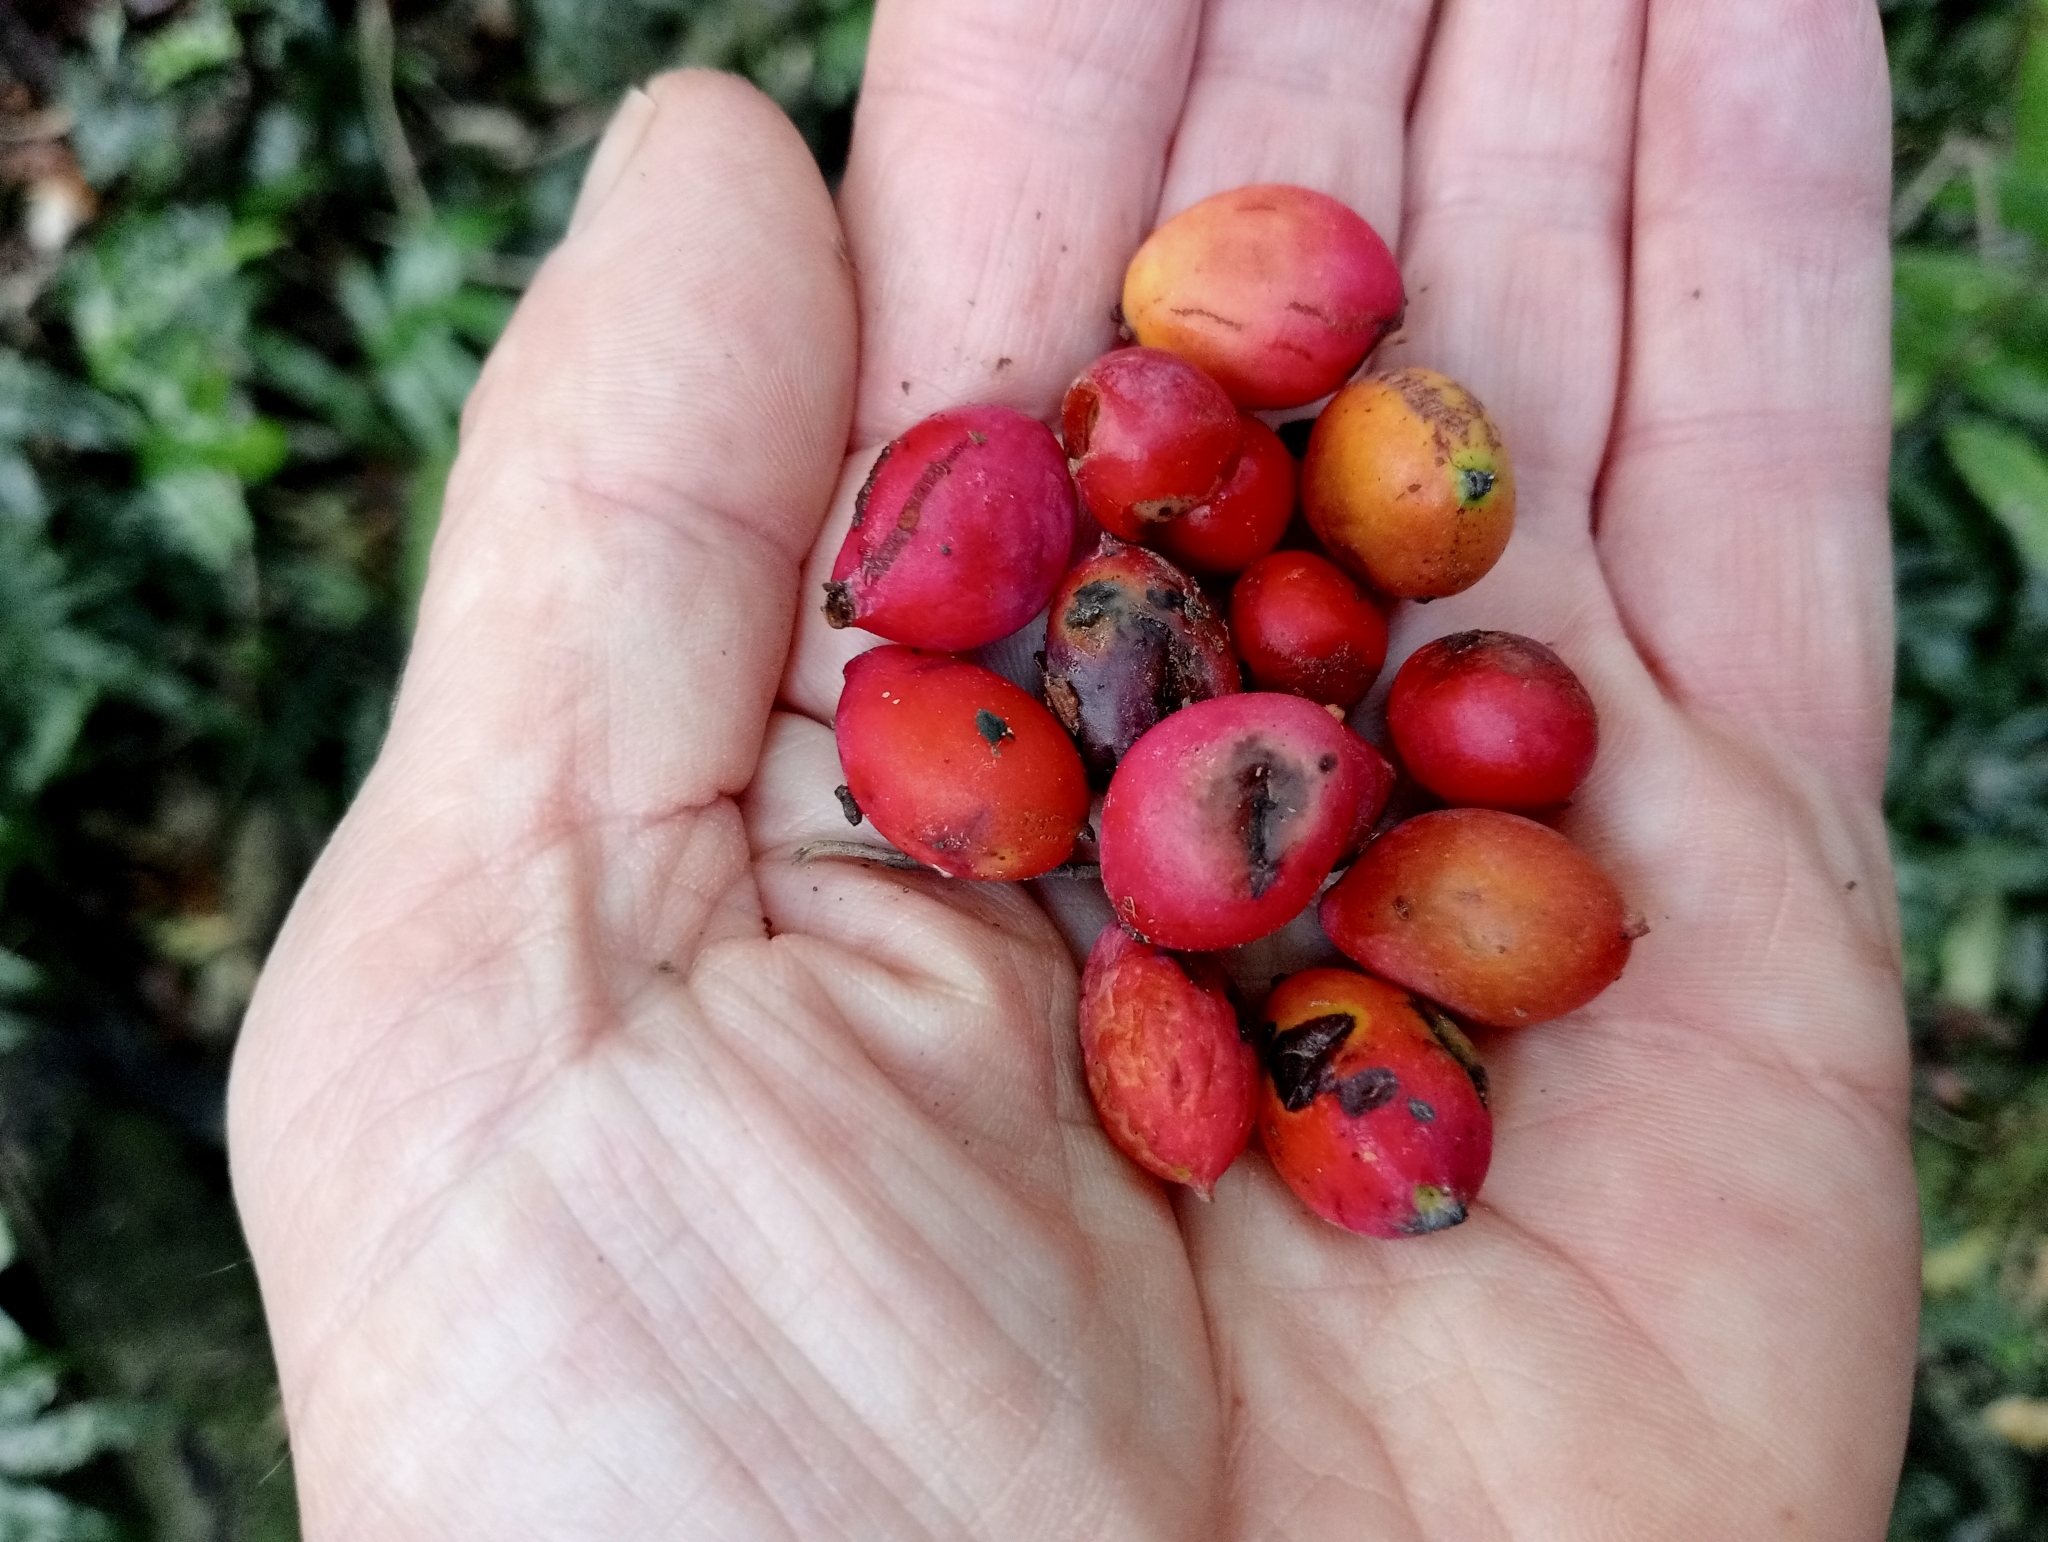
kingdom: Plantae
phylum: Tracheophyta
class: Pinopsida
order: Pinales
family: Podocarpaceae
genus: Prumnopitys
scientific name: Prumnopitys ferruginea
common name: Brown pine
